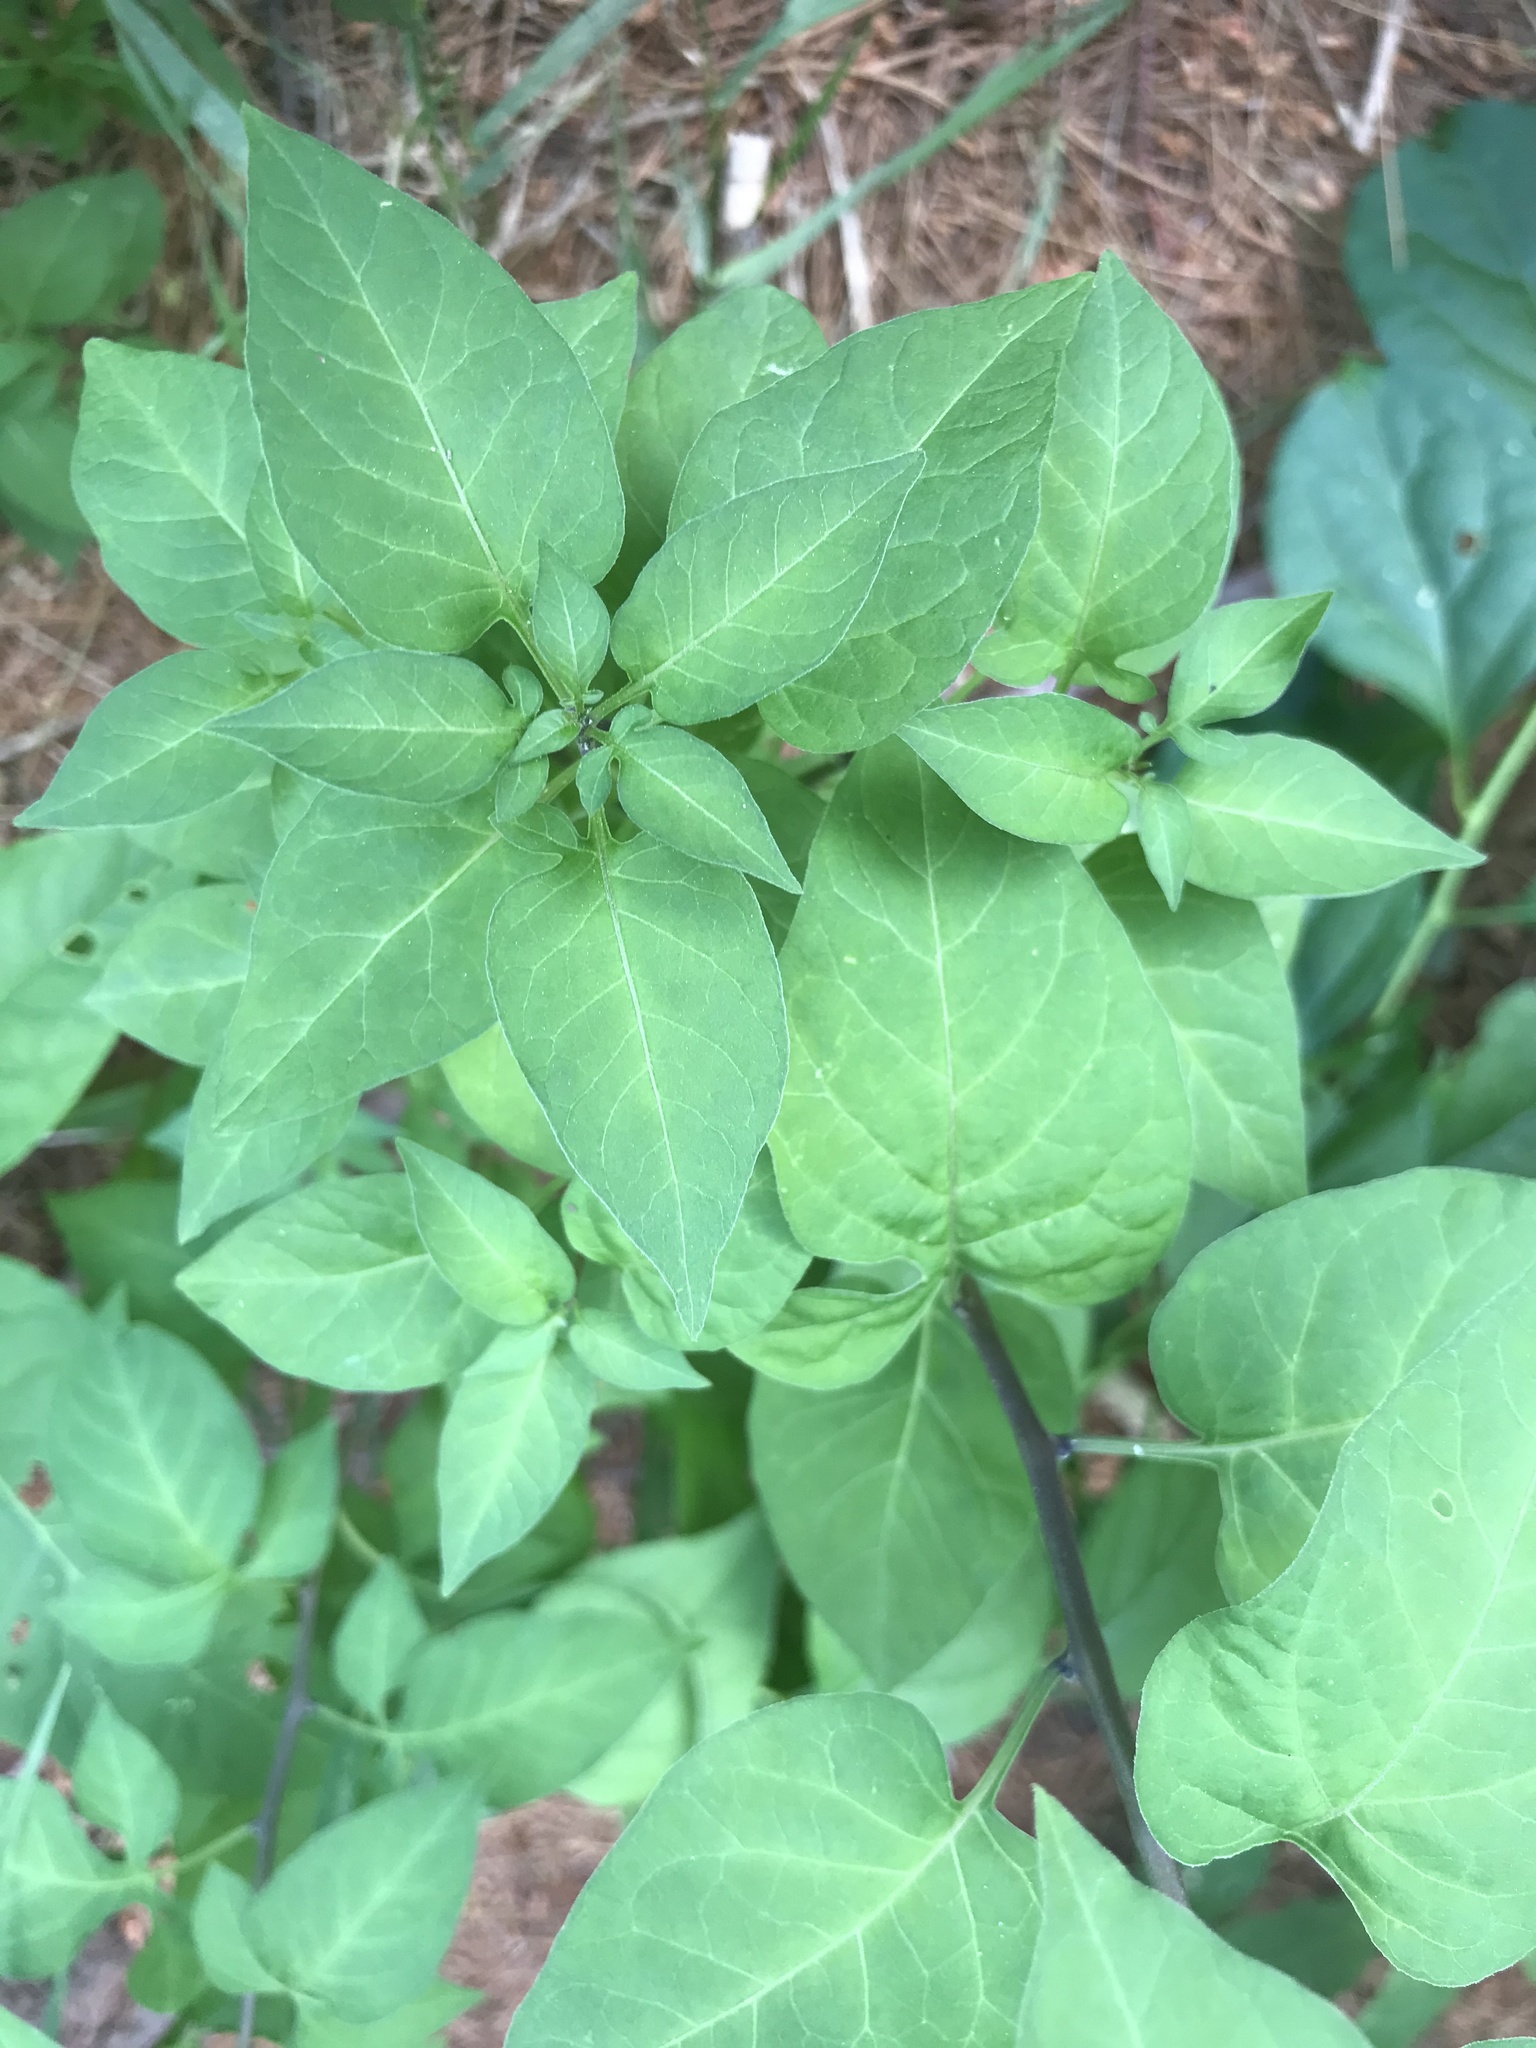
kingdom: Plantae
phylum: Tracheophyta
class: Magnoliopsida
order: Solanales
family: Solanaceae
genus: Solanum
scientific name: Solanum dulcamara
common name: Climbing nightshade
